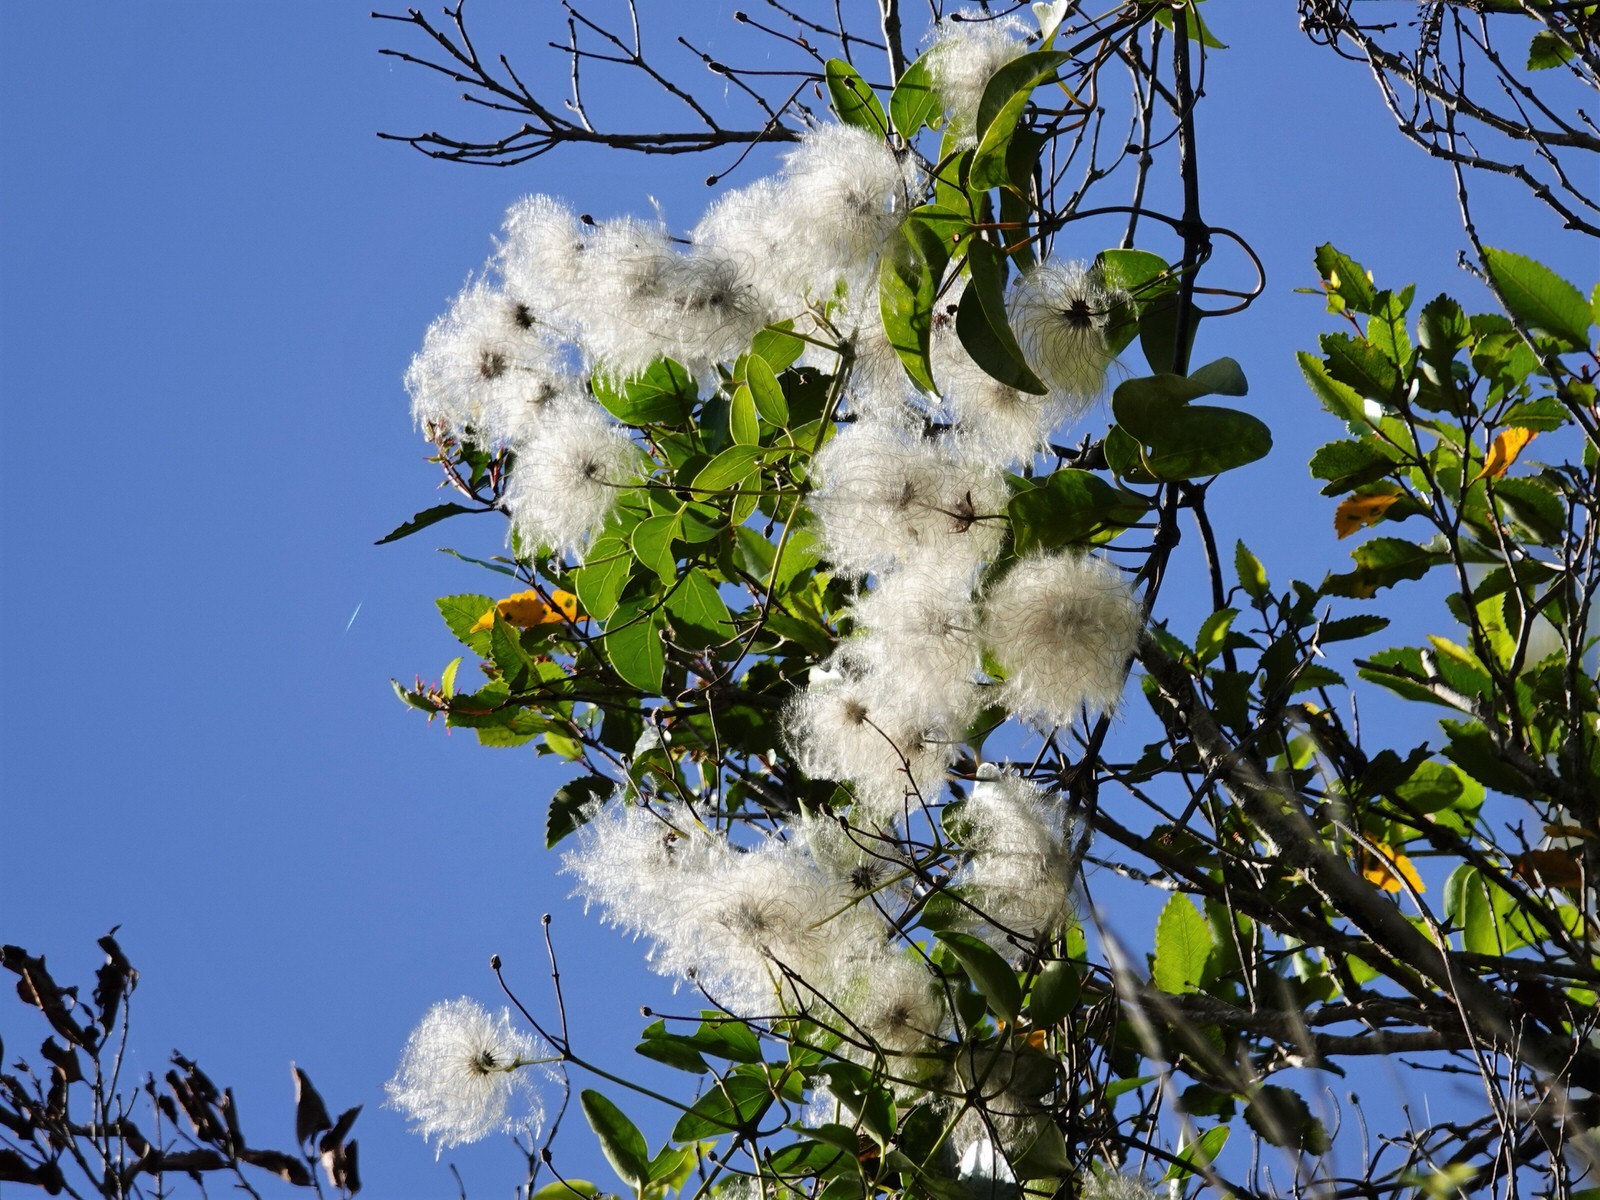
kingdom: Plantae
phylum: Tracheophyta
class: Magnoliopsida
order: Ranunculales
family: Ranunculaceae
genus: Clematis
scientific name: Clematis paniculata
